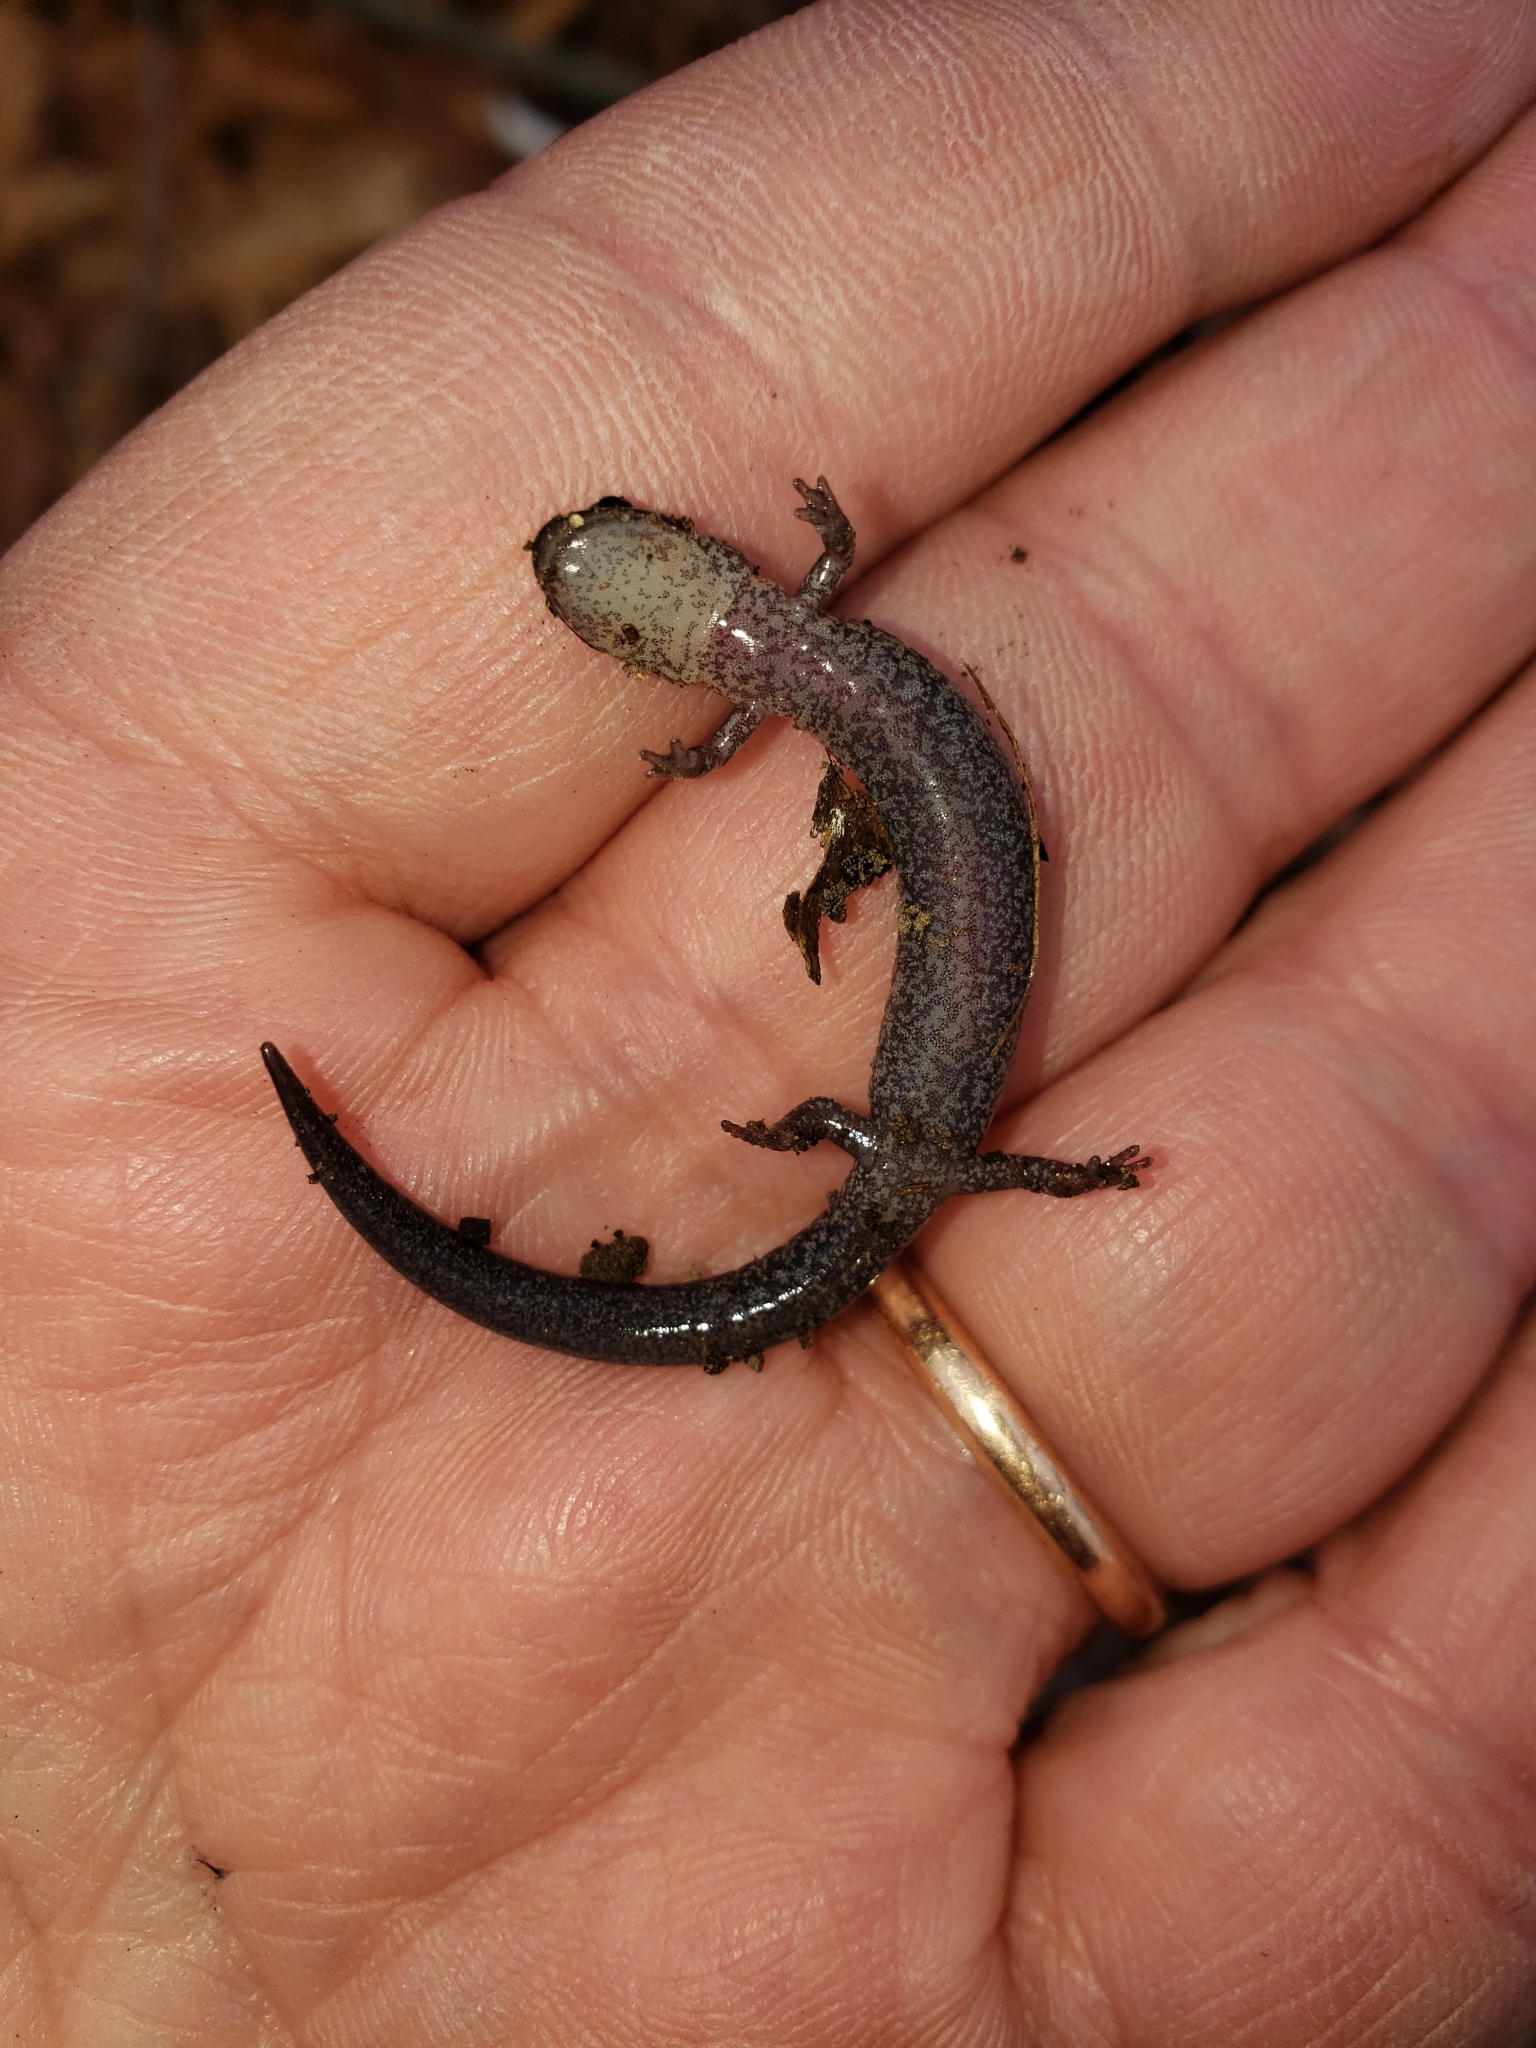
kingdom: Animalia
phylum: Chordata
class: Amphibia
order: Caudata
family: Plethodontidae
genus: Plethodon
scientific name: Plethodon cinereus
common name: Redback salamander
